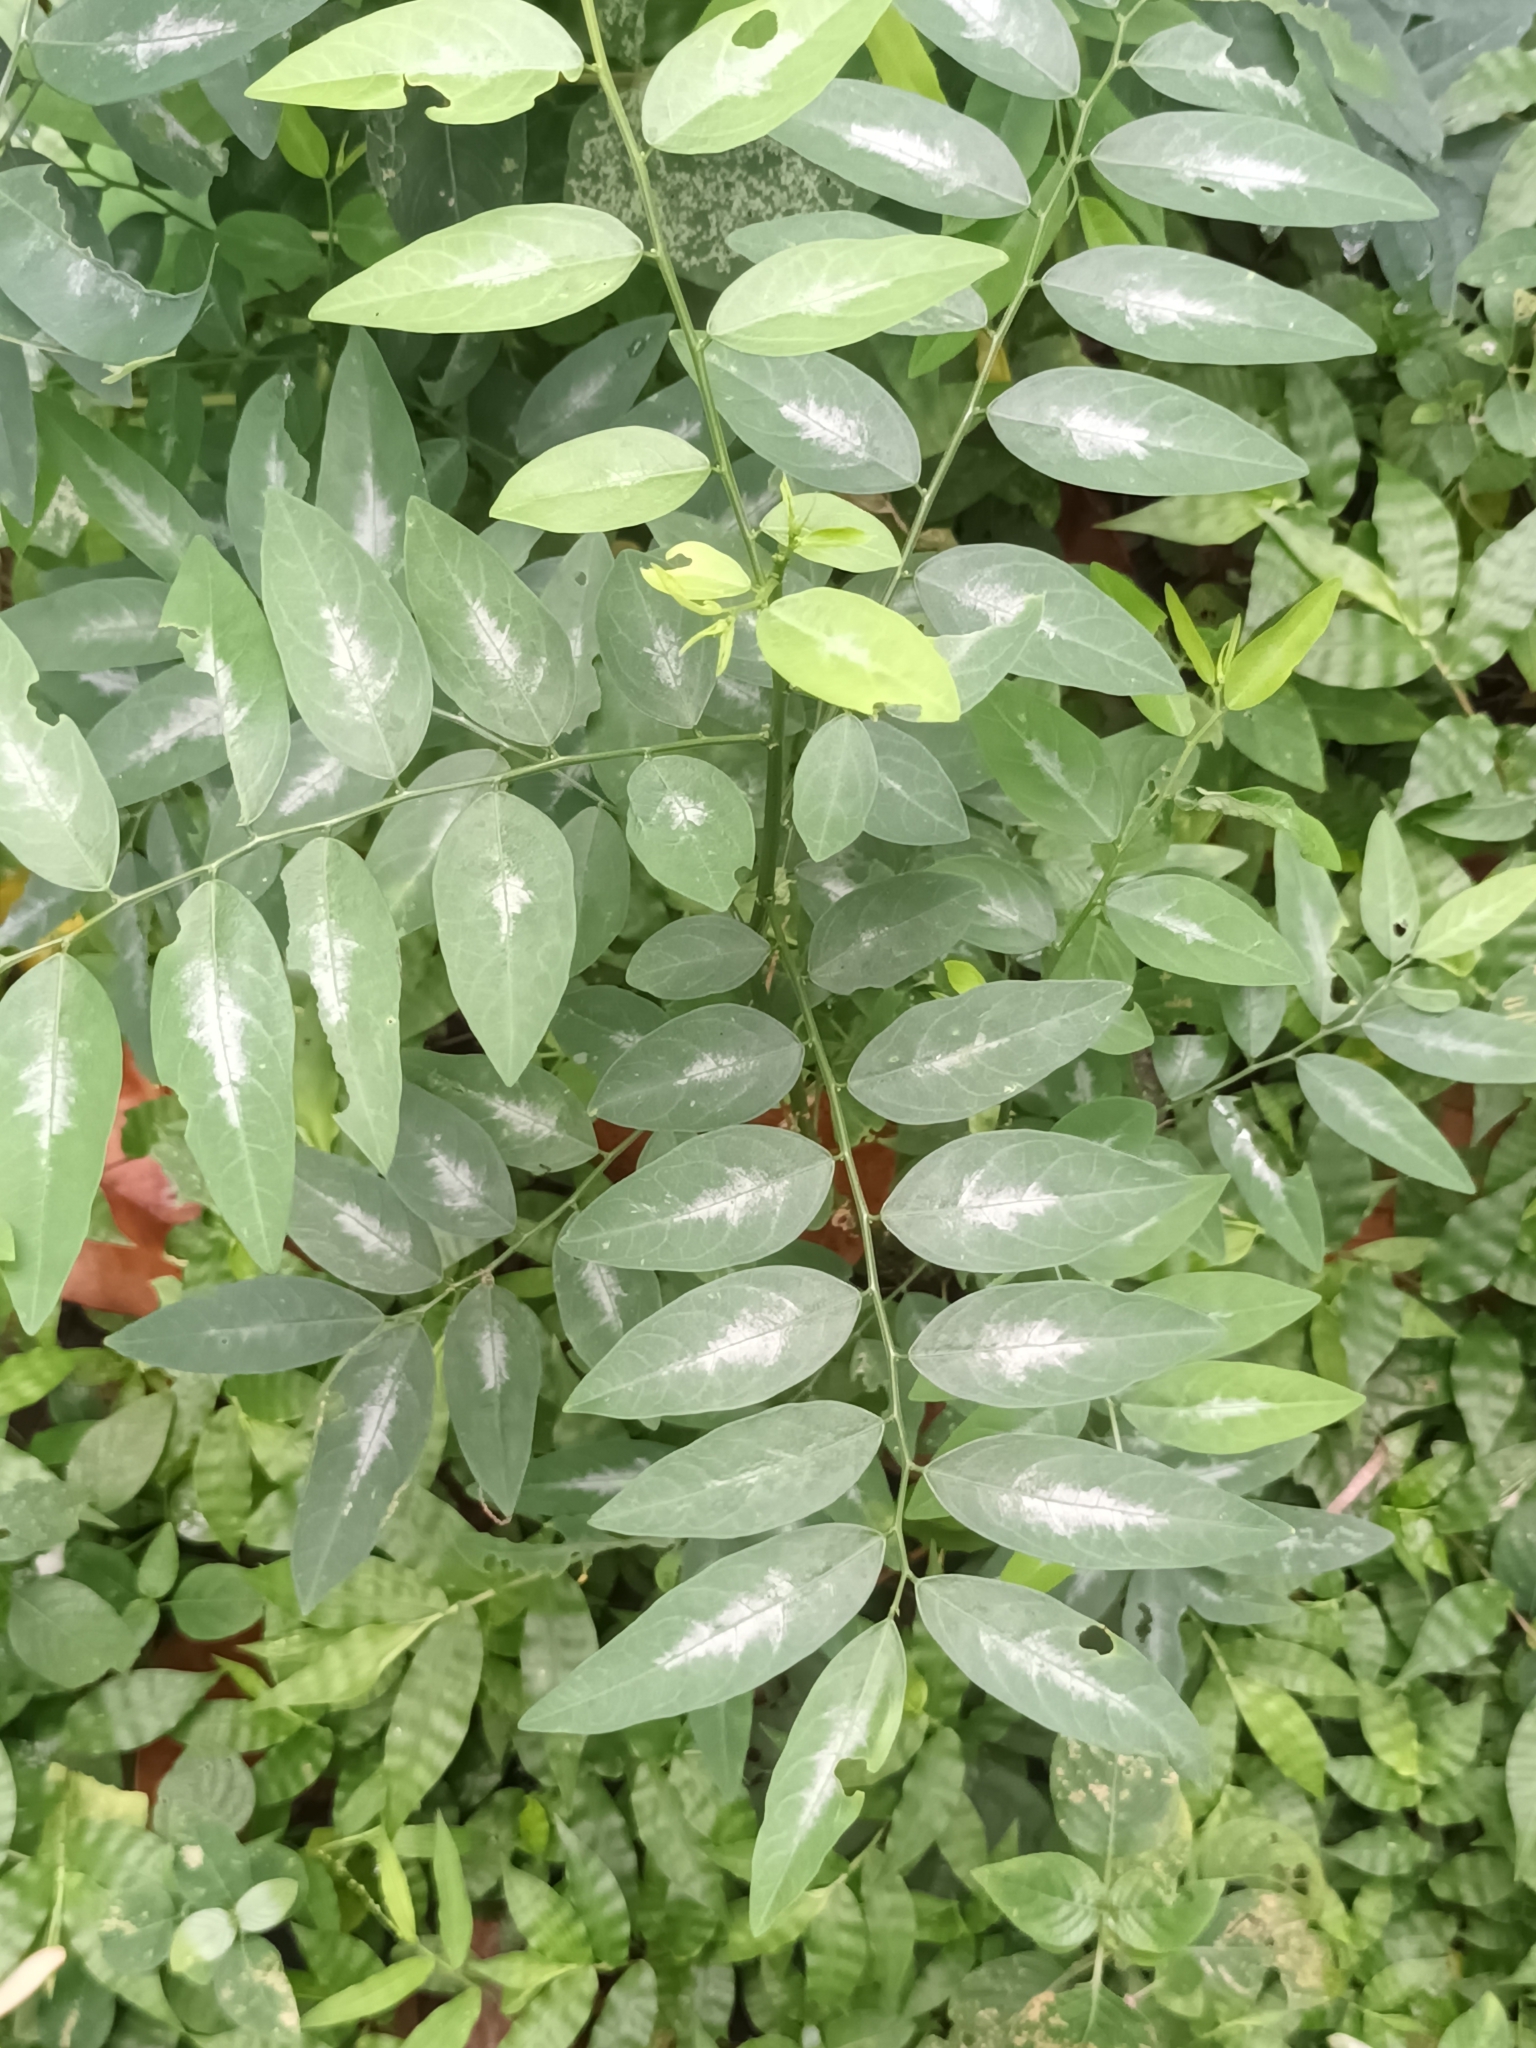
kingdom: Plantae
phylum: Tracheophyta
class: Magnoliopsida
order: Malpighiales
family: Phyllanthaceae
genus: Breynia
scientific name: Breynia androgyna
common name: Star gooseberry
